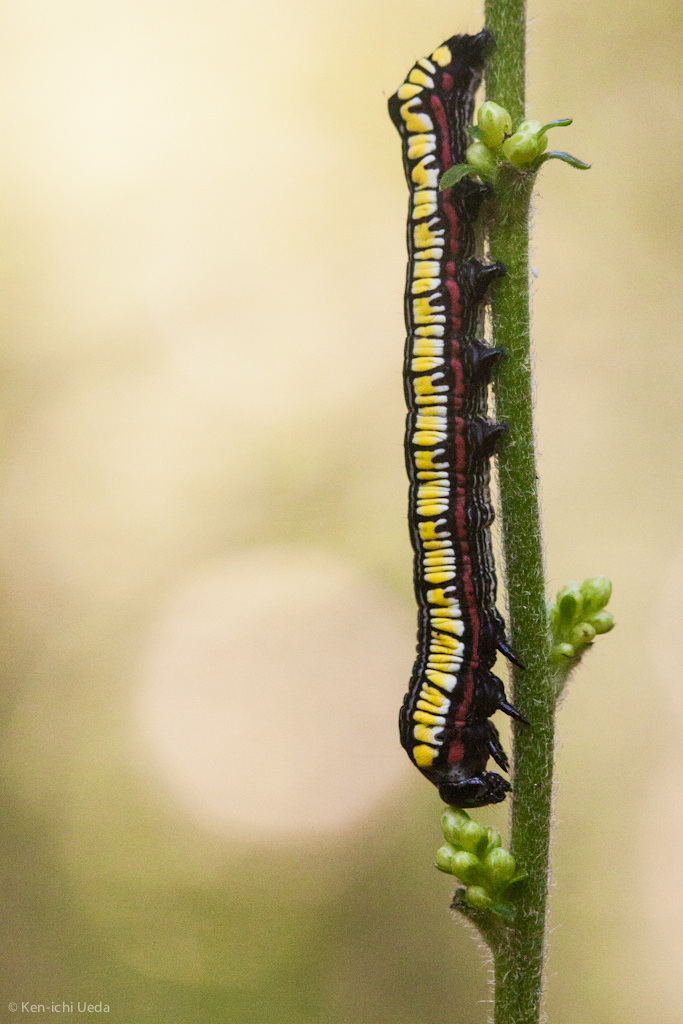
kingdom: Animalia
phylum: Arthropoda
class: Insecta
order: Lepidoptera
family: Noctuidae
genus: Cucullia
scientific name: Cucullia convexipennis
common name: Brown-hooded owlet
